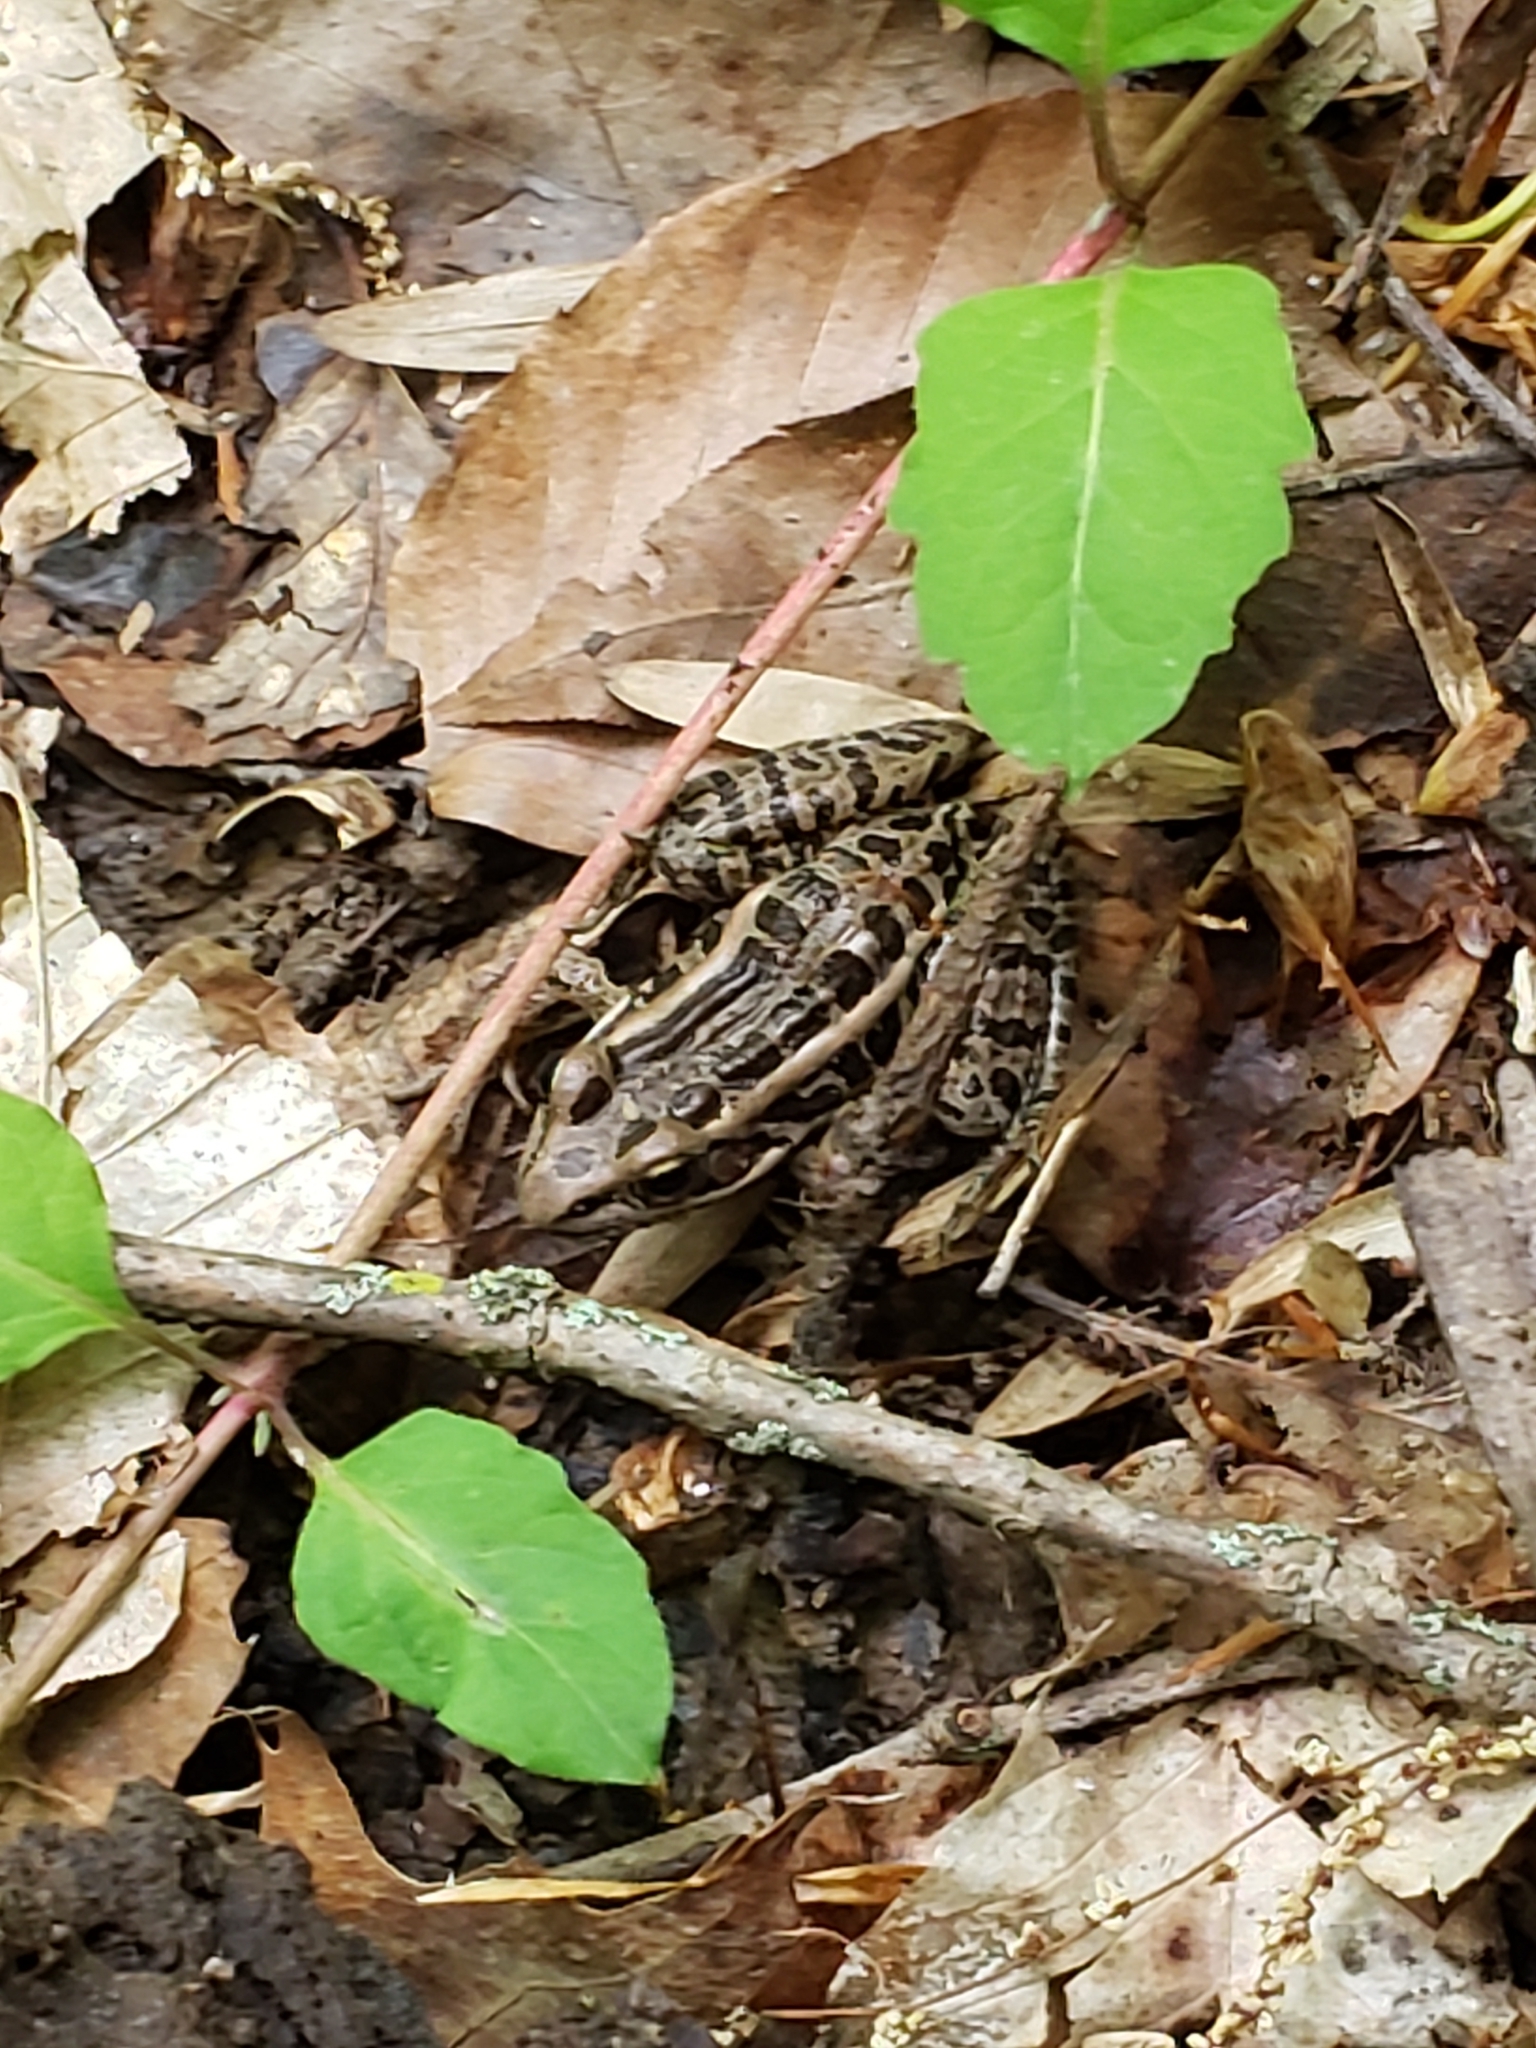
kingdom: Animalia
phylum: Chordata
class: Amphibia
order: Anura
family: Ranidae
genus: Lithobates
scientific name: Lithobates palustris
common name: Pickerel frog
